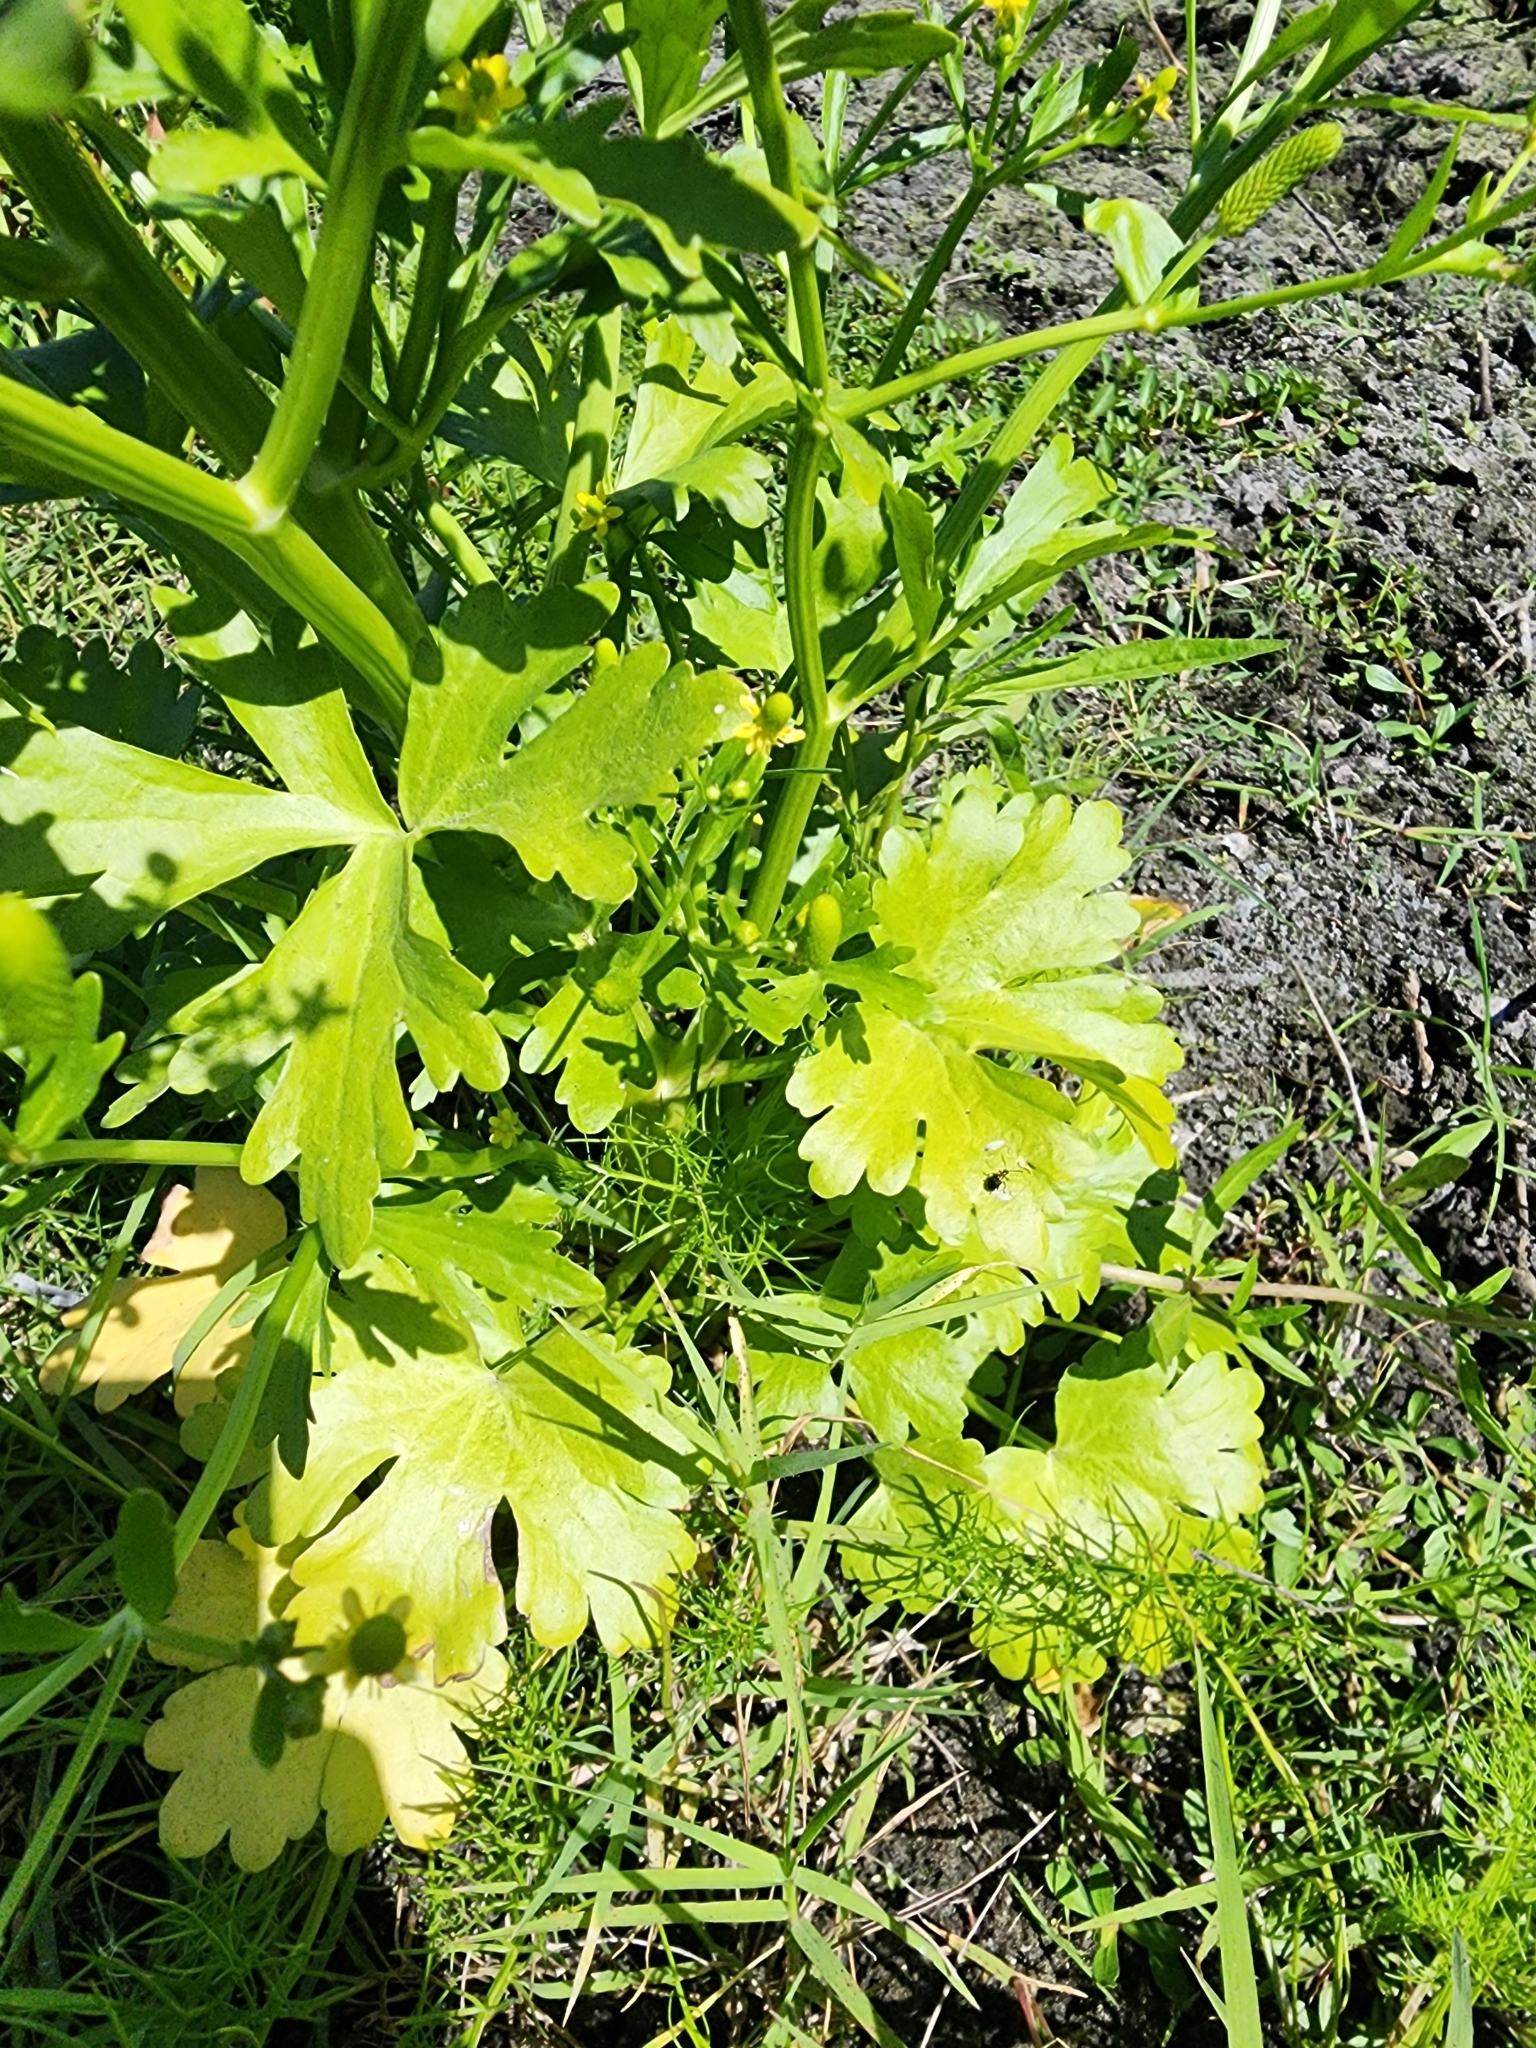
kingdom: Plantae
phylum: Tracheophyta
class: Magnoliopsida
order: Ranunculales
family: Ranunculaceae
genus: Ranunculus
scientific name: Ranunculus sceleratus
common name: Celery-leaved buttercup
